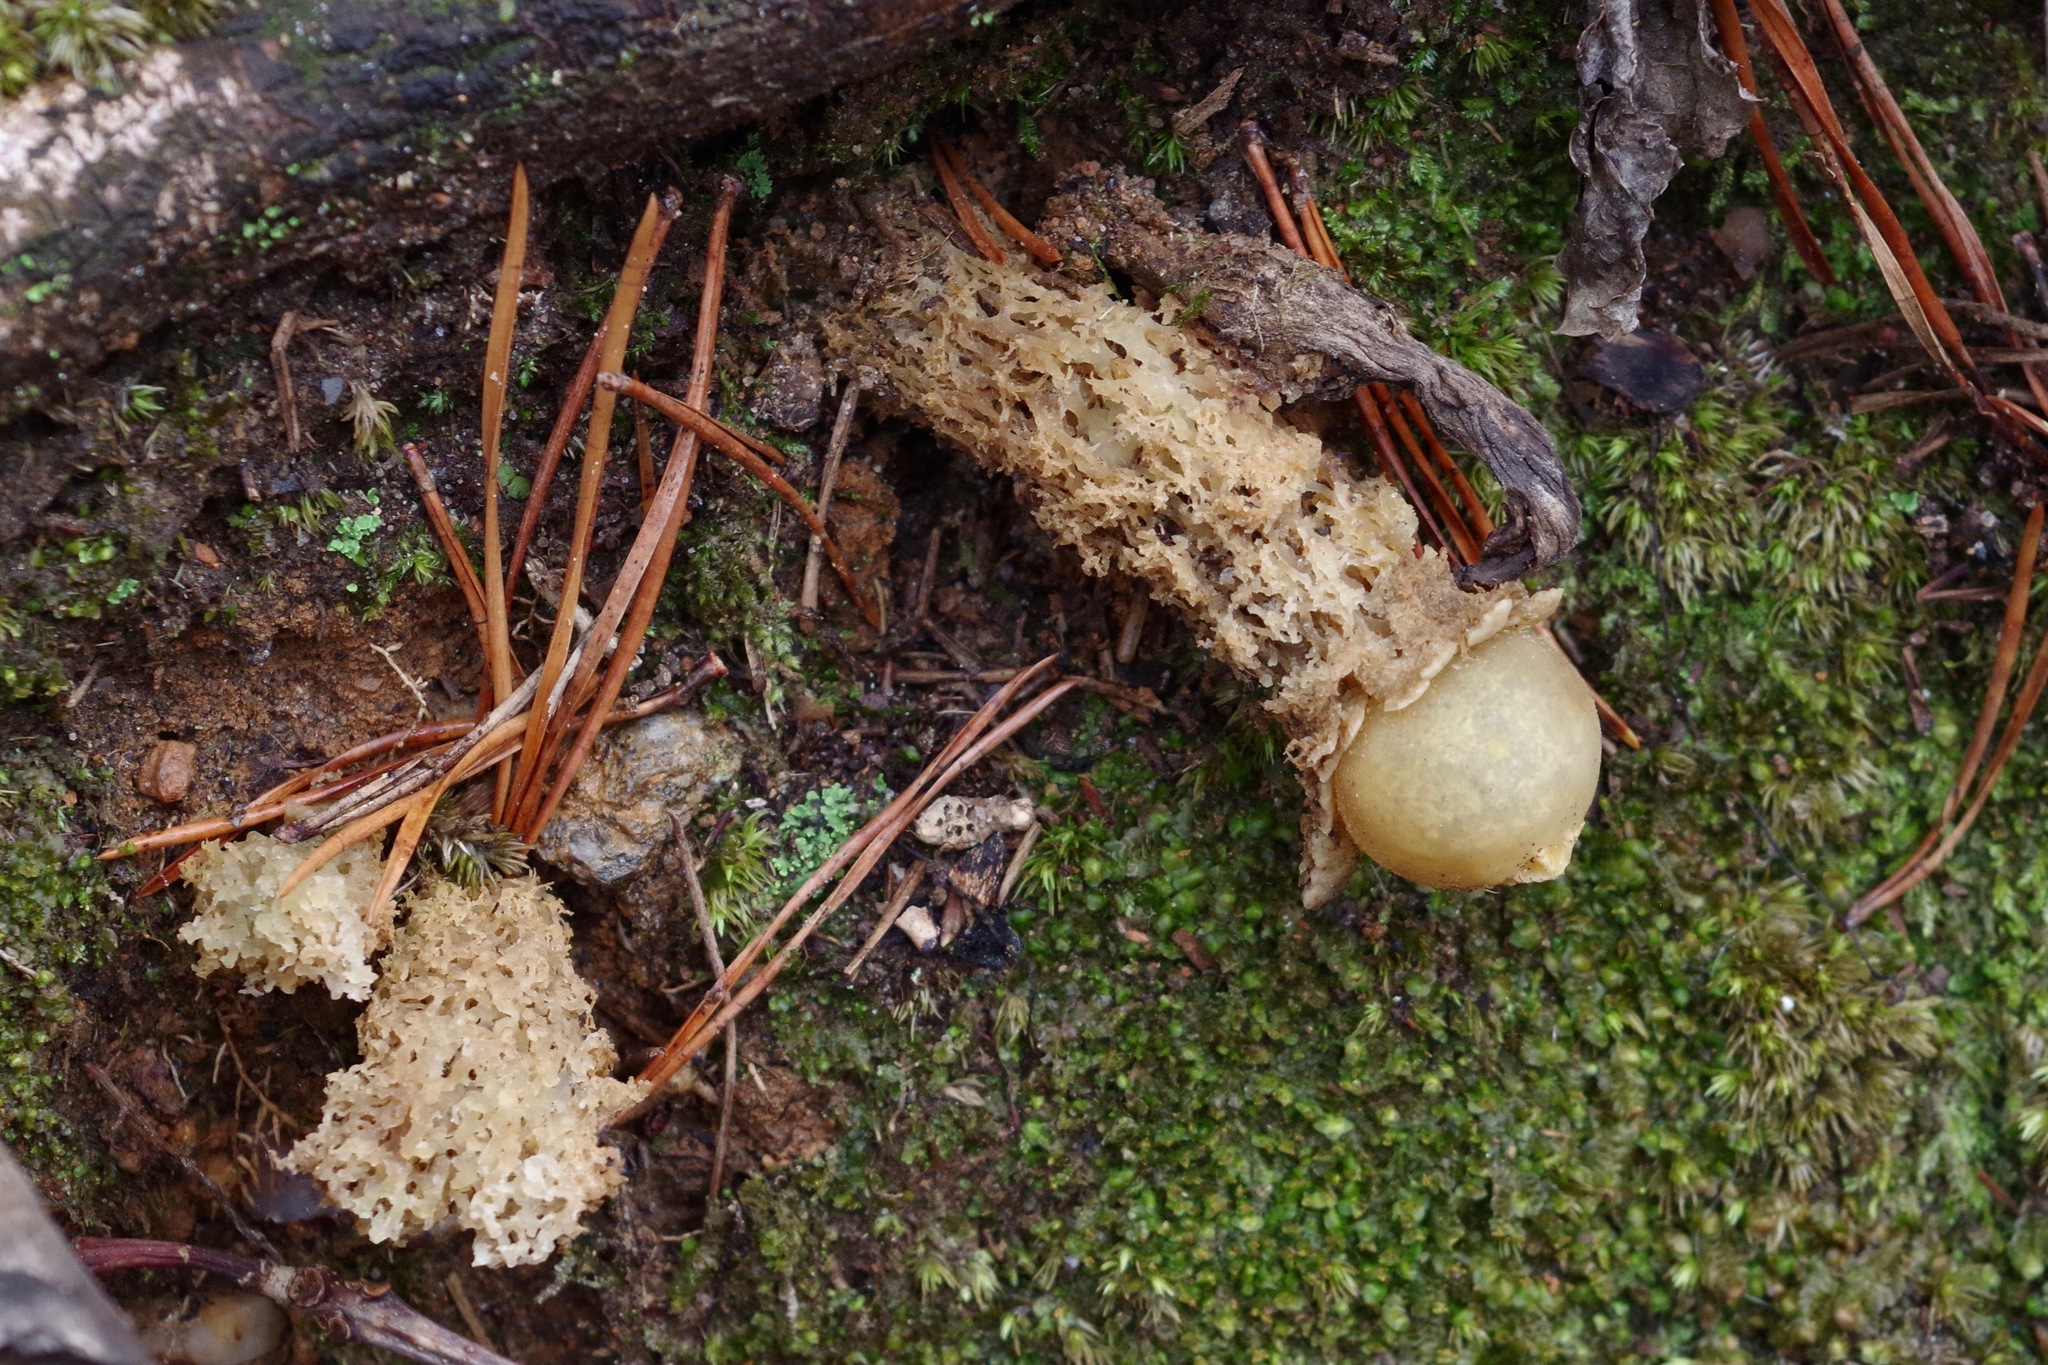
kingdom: Fungi
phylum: Basidiomycota
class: Agaricomycetes
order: Boletales
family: Calostomataceae
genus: Calostoma
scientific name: Calostoma lutescens
